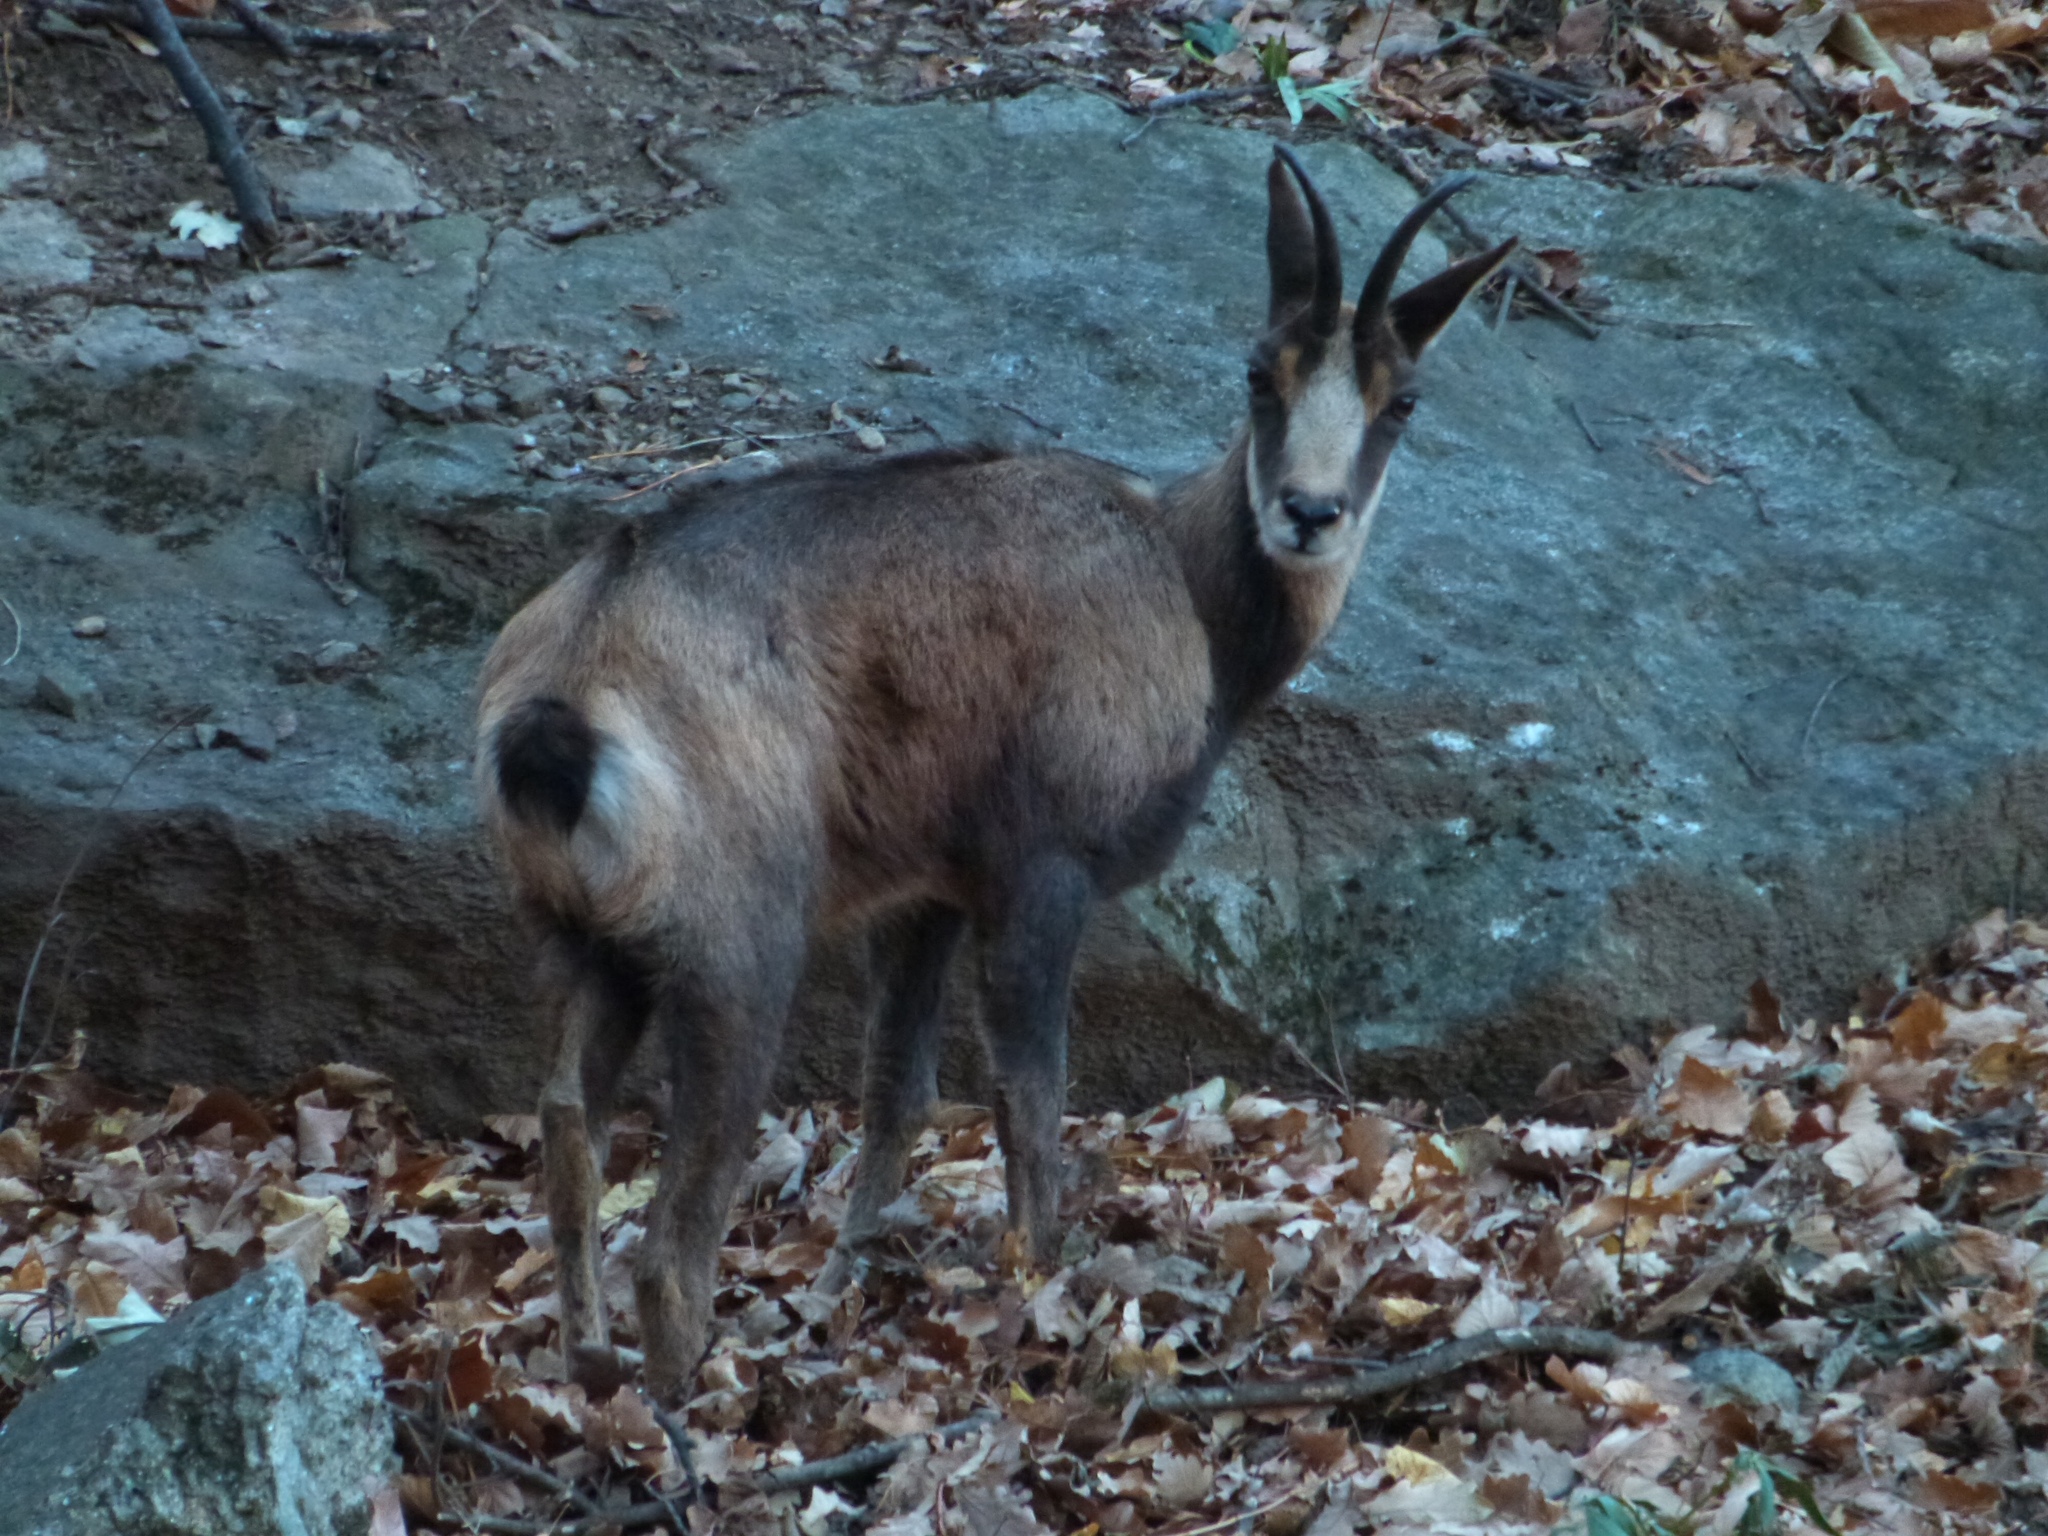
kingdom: Animalia
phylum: Chordata
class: Mammalia
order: Artiodactyla
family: Bovidae
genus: Rupicapra
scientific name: Rupicapra pyrenaica
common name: Pyrenean chamois
